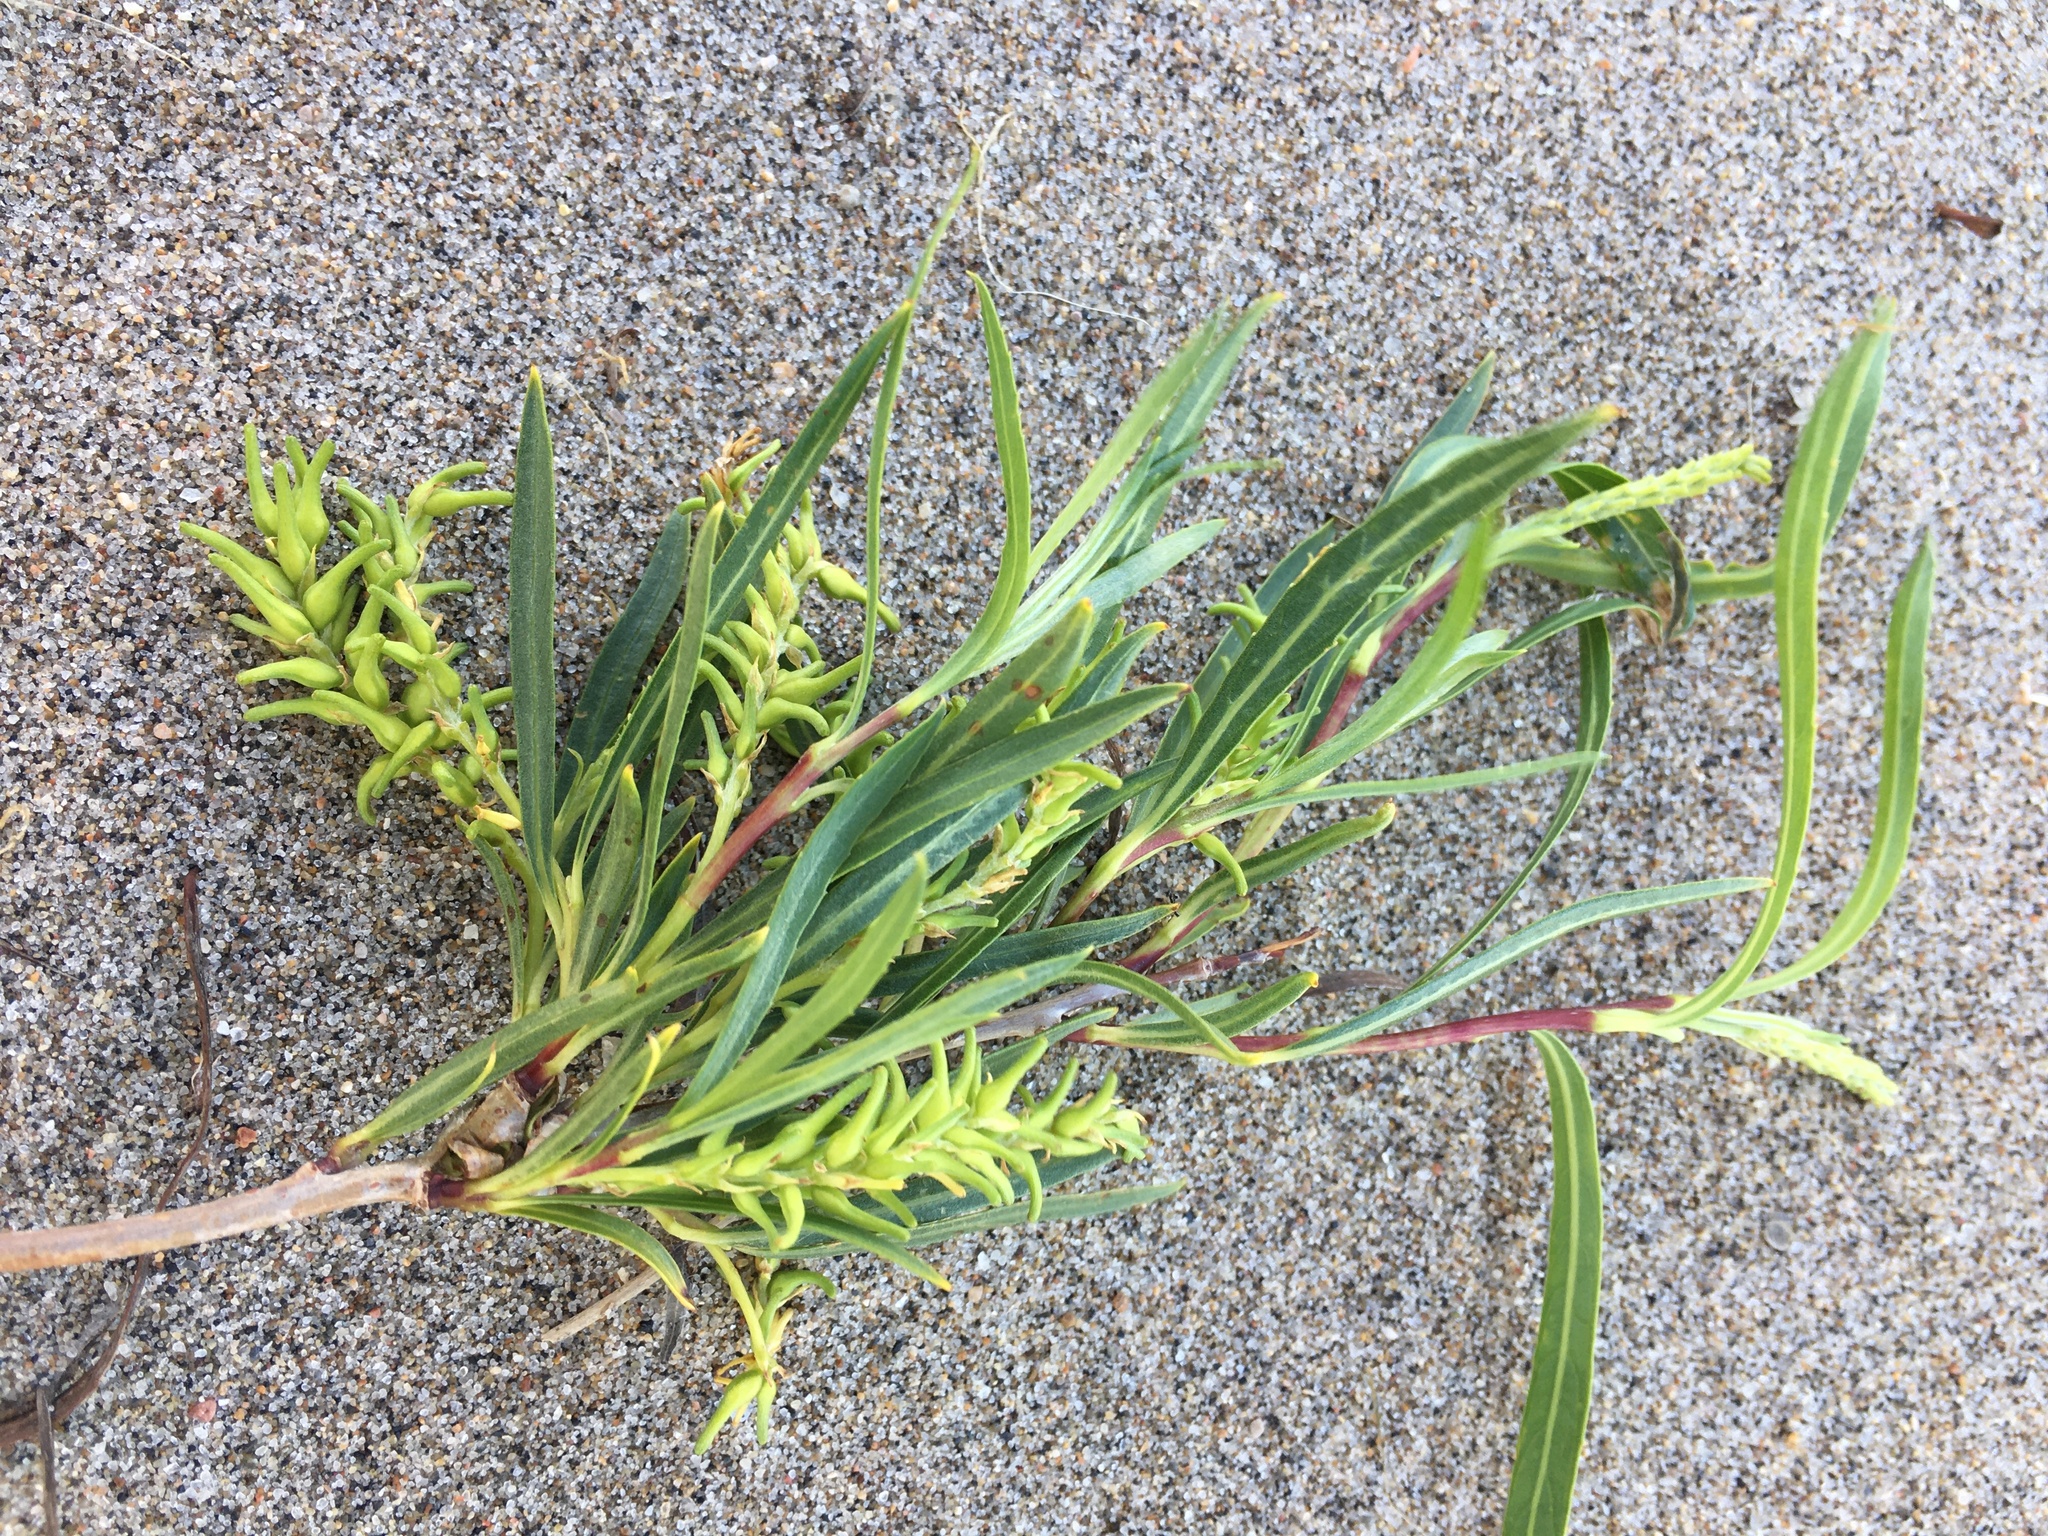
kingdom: Plantae
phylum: Tracheophyta
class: Magnoliopsida
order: Malpighiales
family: Salicaceae
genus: Salix
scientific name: Salix interior
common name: Sandbar willow
